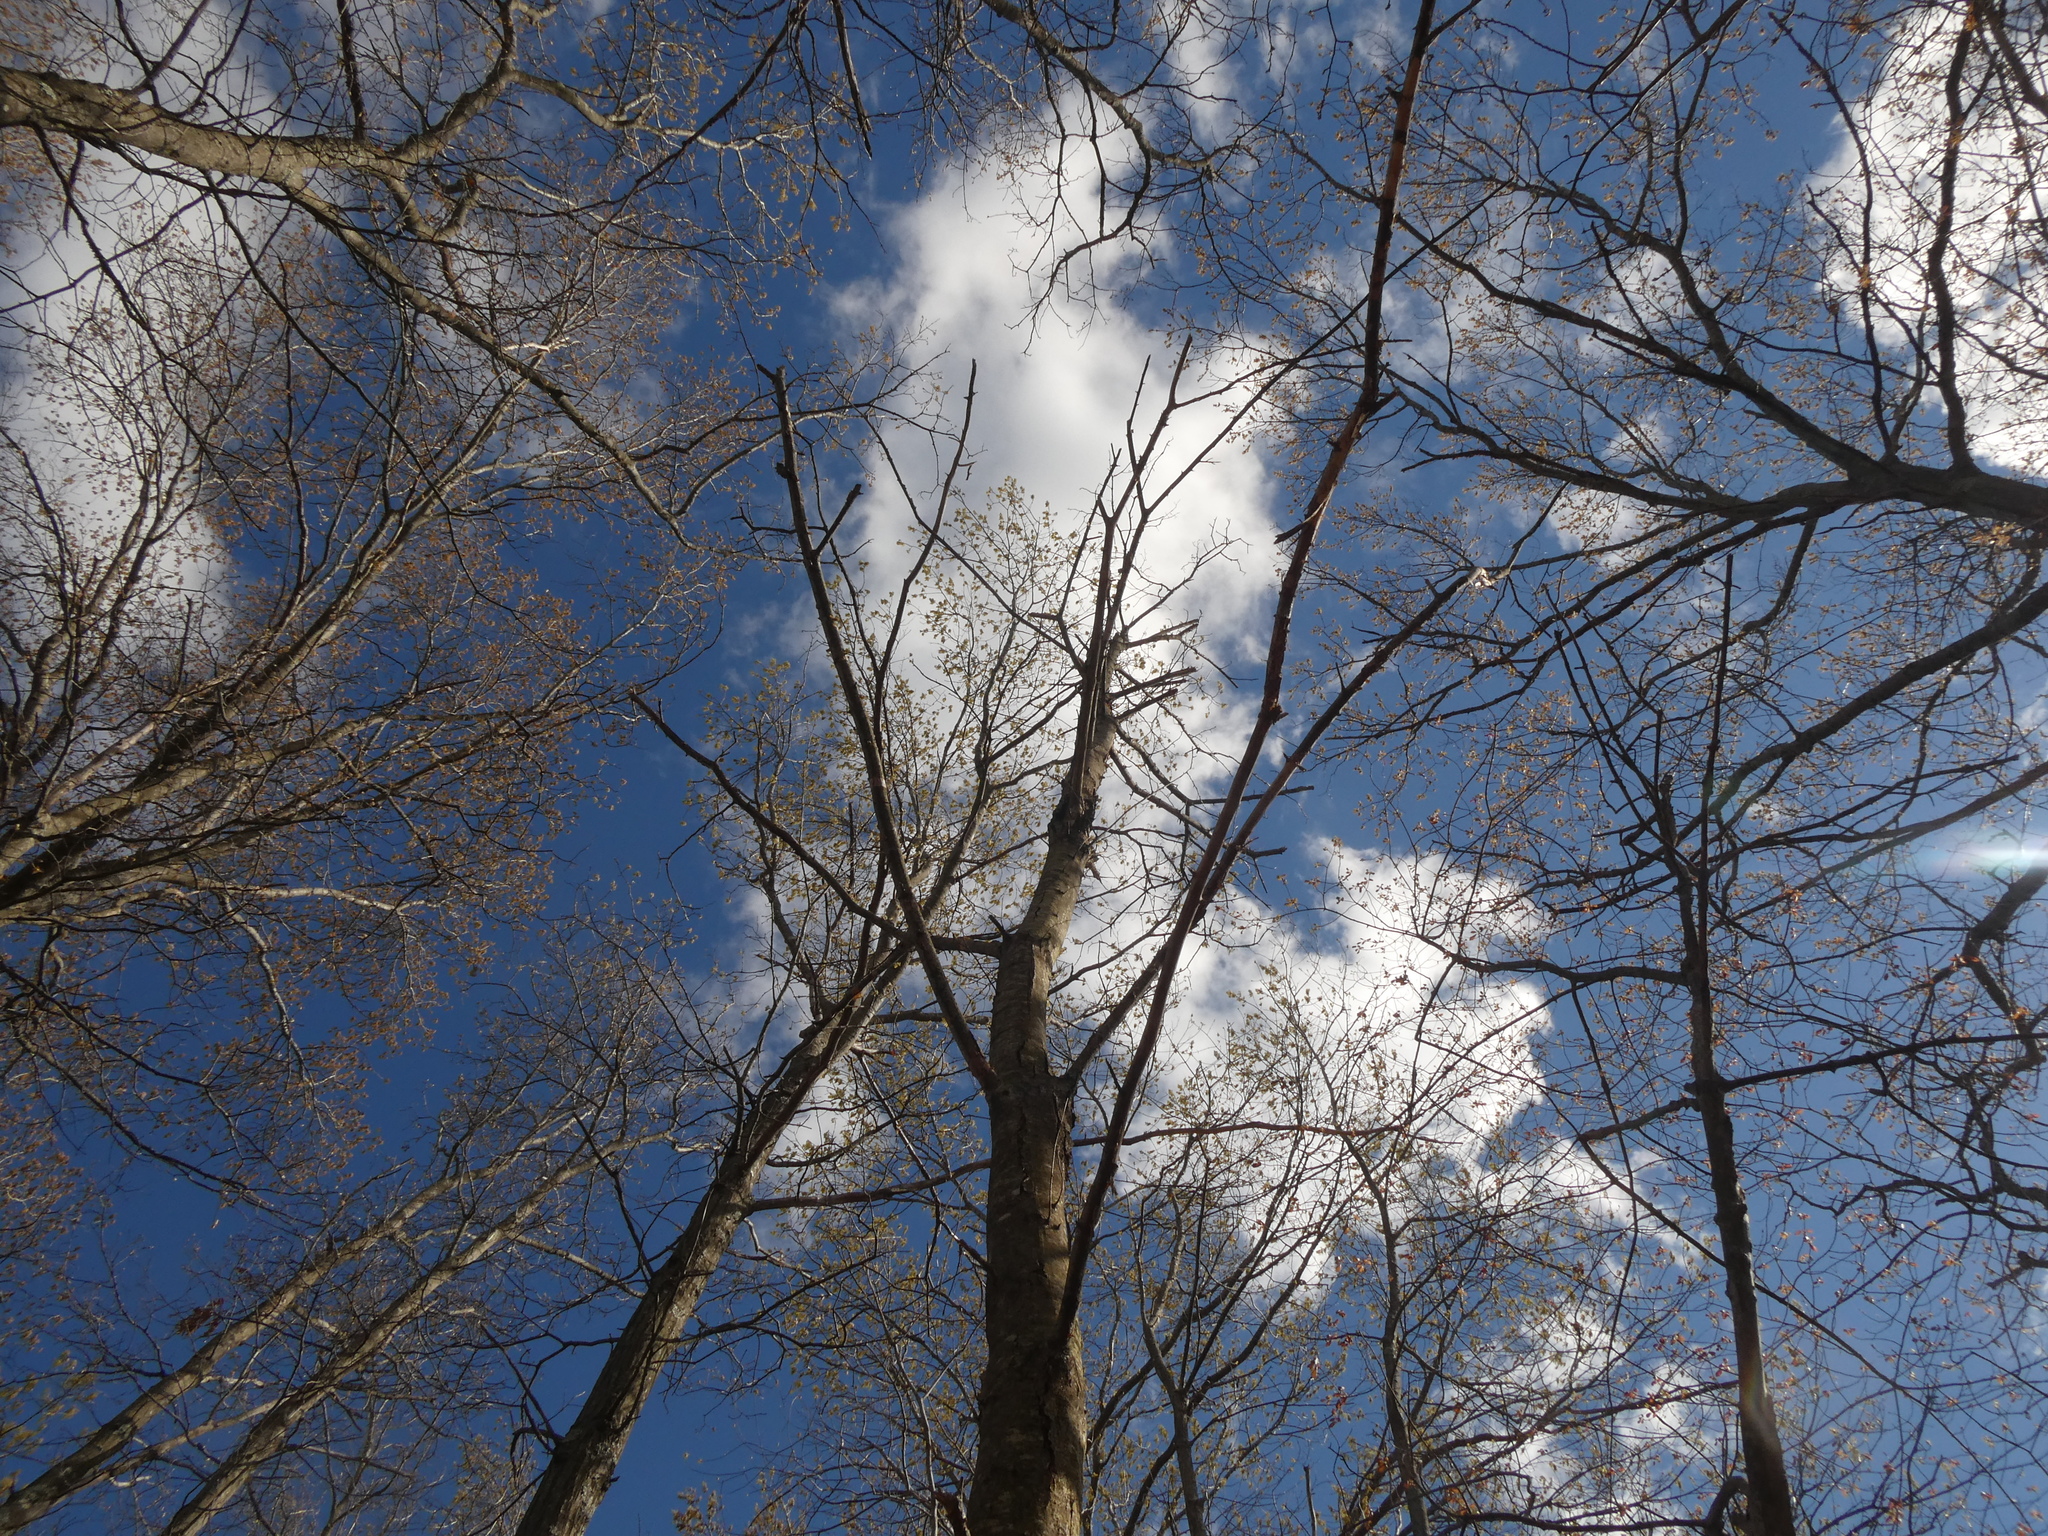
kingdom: Plantae
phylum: Tracheophyta
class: Magnoliopsida
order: Fagales
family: Fagaceae
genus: Castanea
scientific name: Castanea dentata
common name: American chestnut
